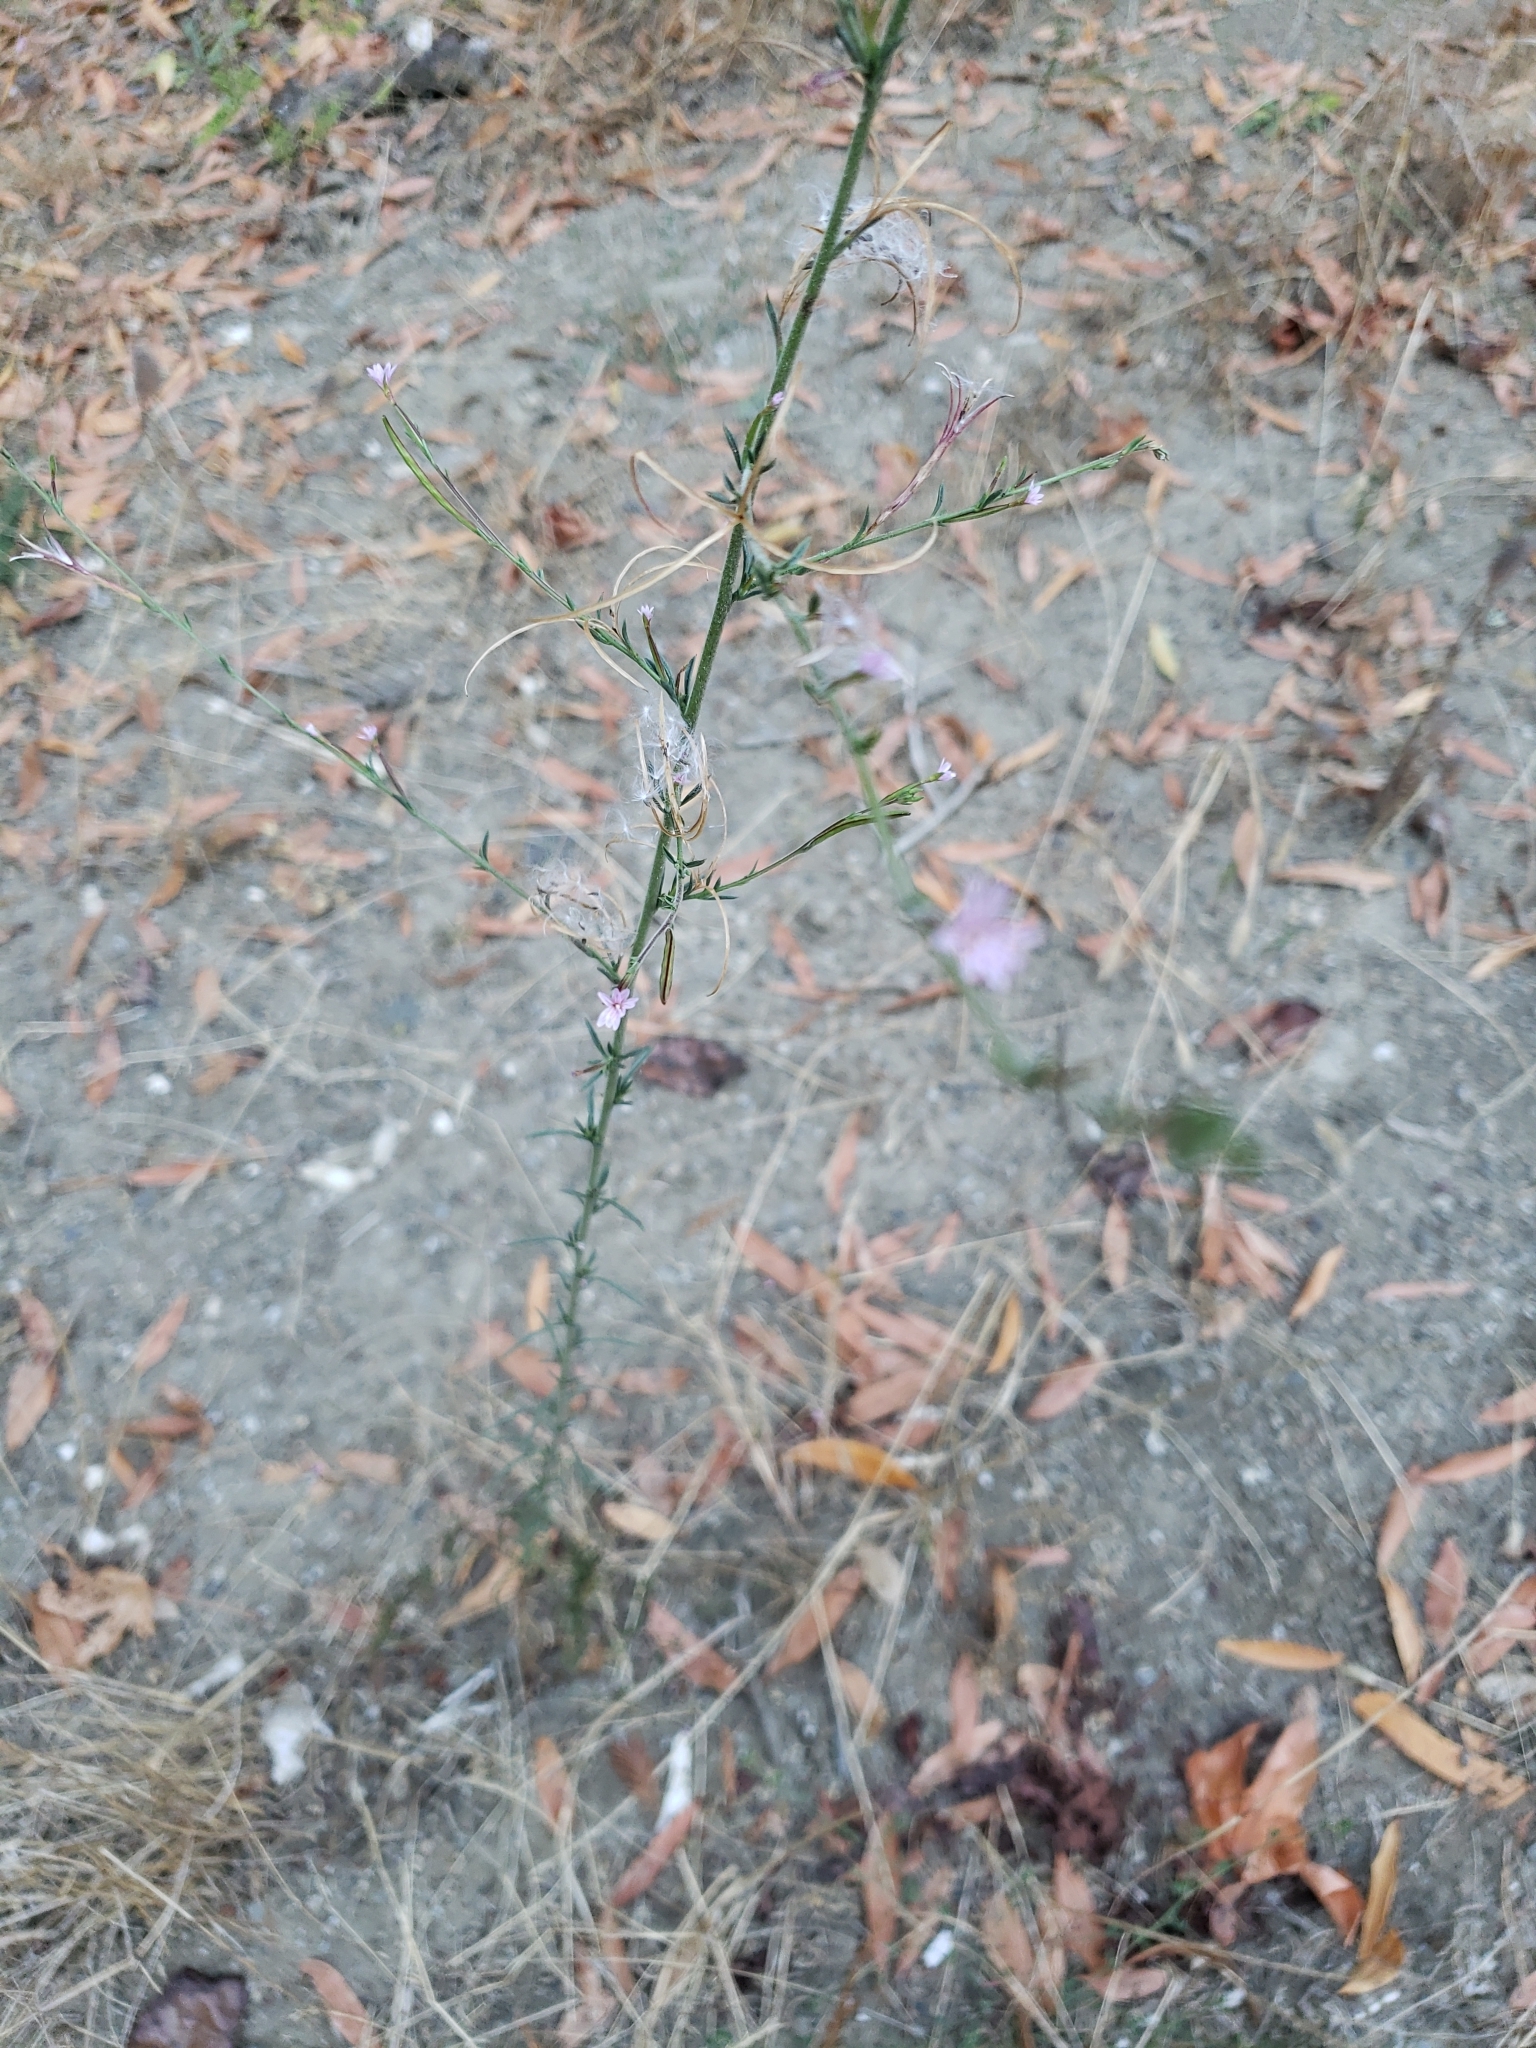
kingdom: Plantae
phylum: Tracheophyta
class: Magnoliopsida
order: Myrtales
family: Onagraceae
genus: Epilobium
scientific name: Epilobium brachycarpum
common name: Annual willowherb
